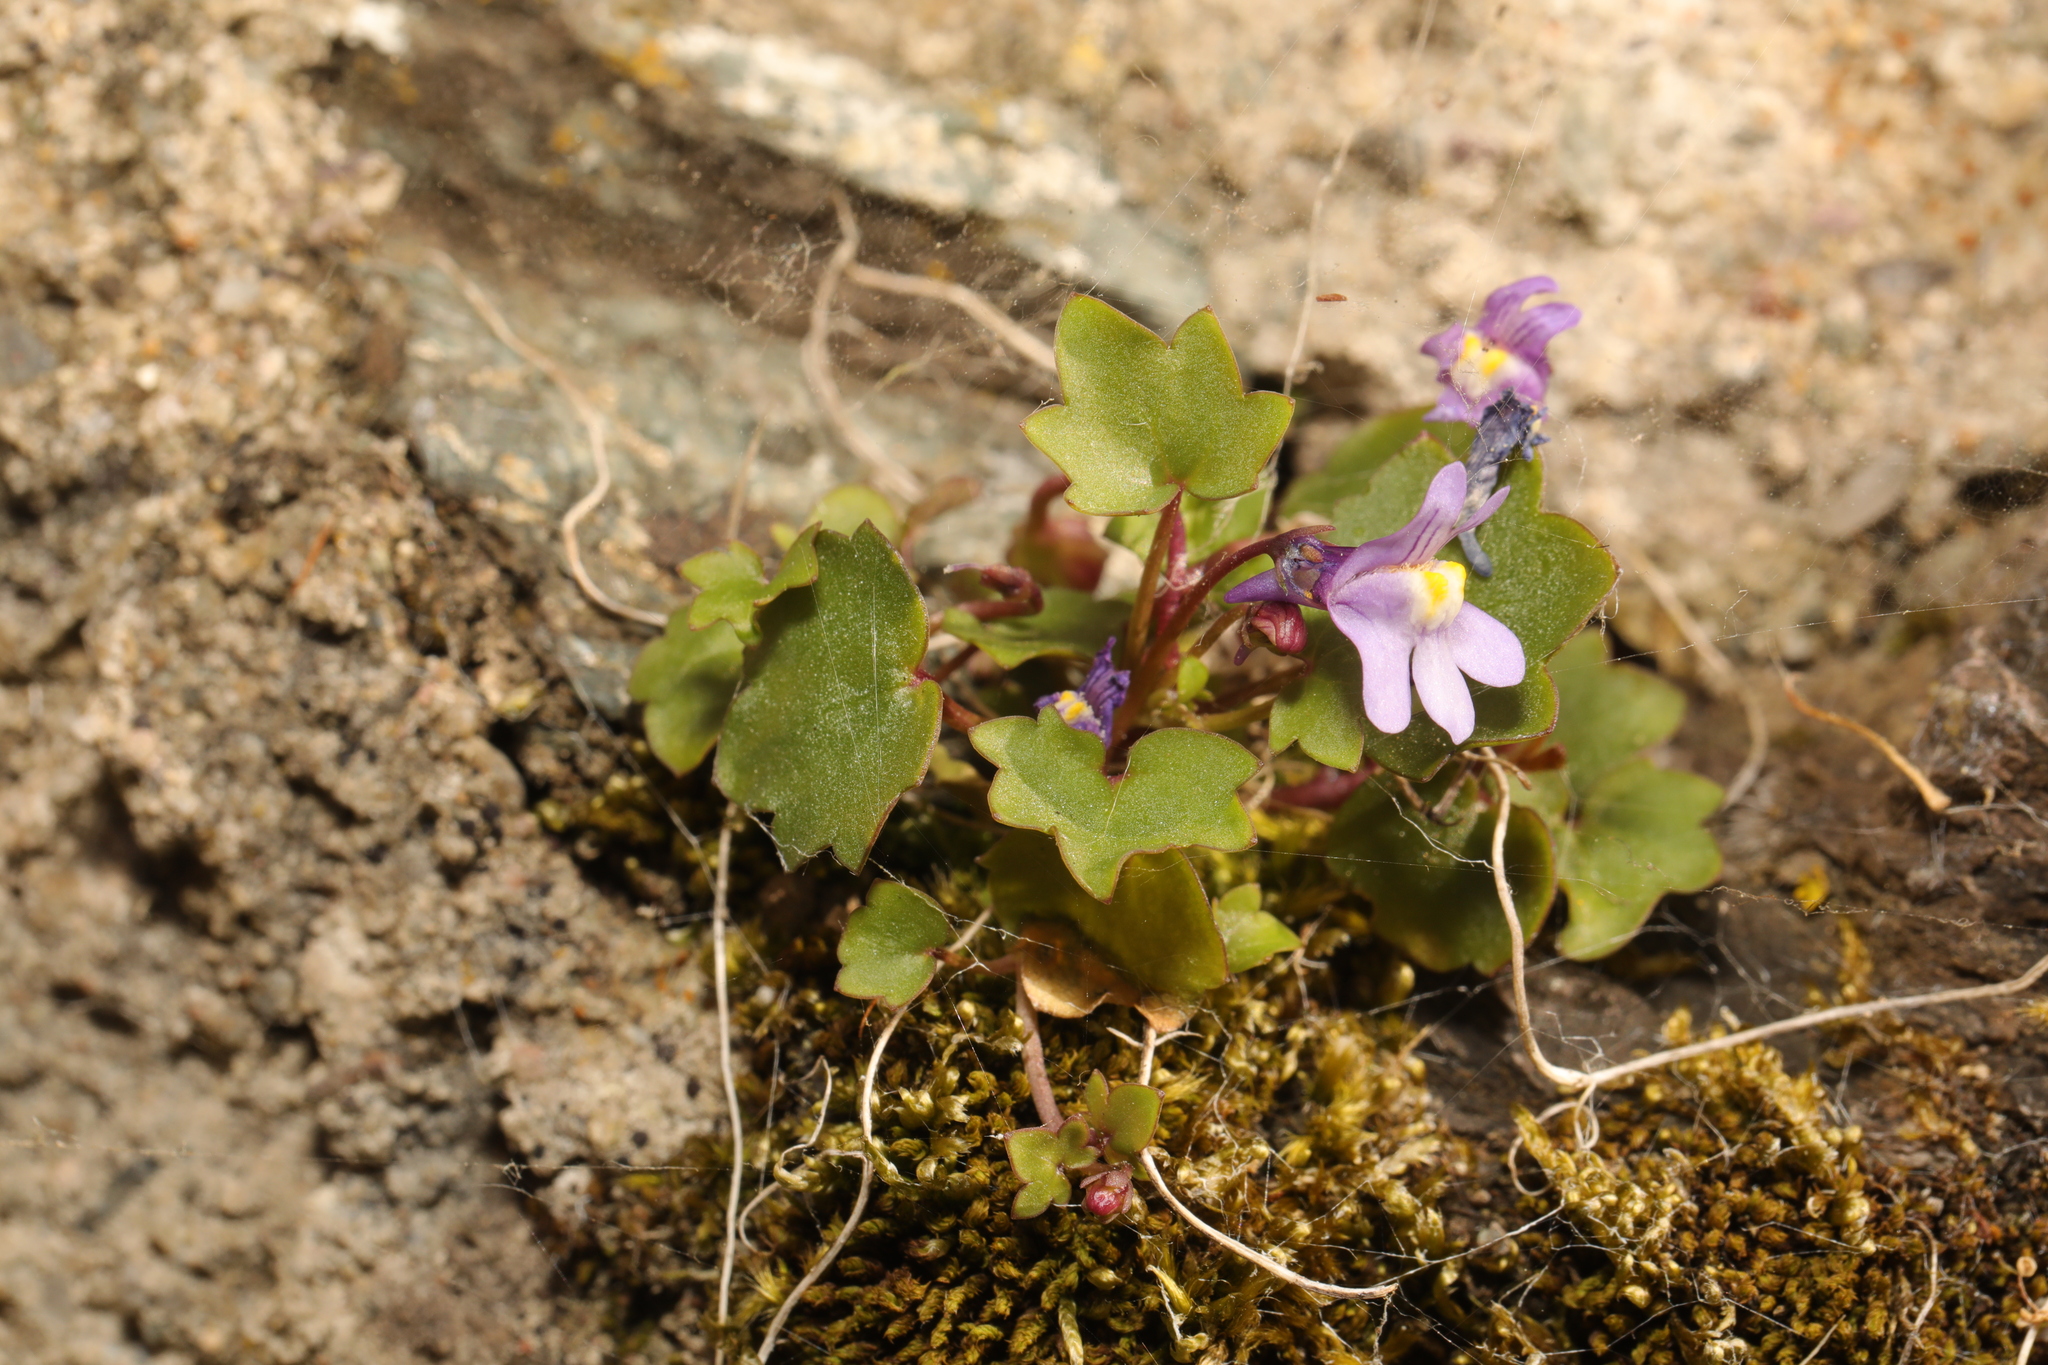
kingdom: Plantae
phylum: Tracheophyta
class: Magnoliopsida
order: Lamiales
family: Plantaginaceae
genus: Cymbalaria
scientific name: Cymbalaria muralis
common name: Ivy-leaved toadflax
